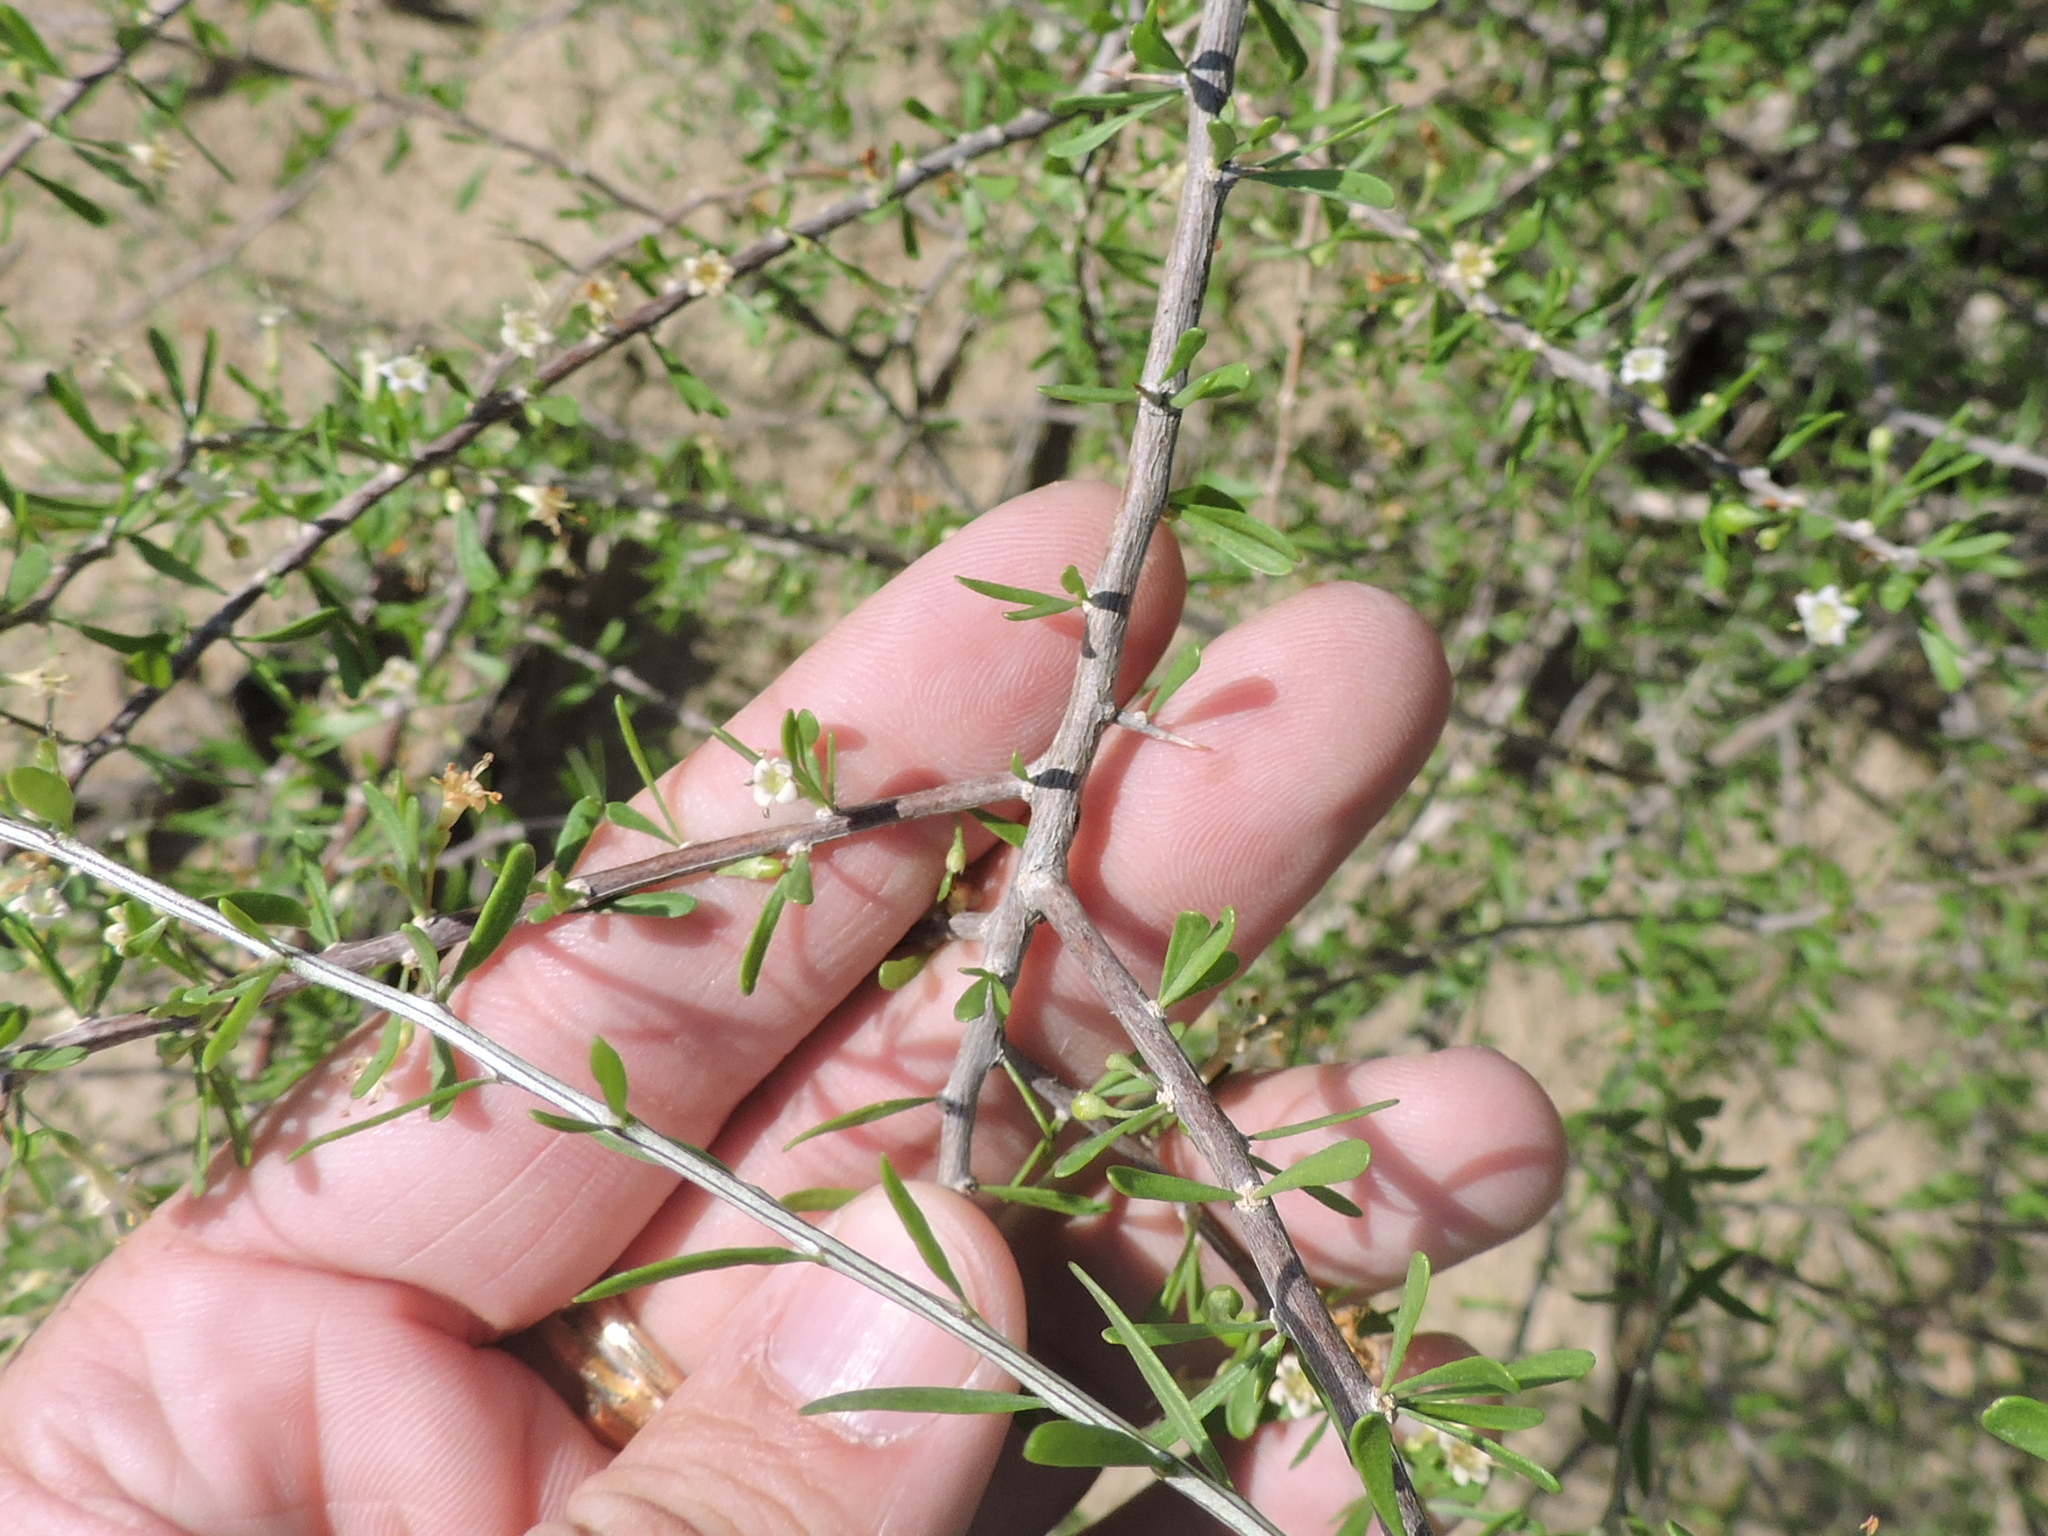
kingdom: Plantae
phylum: Tracheophyta
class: Magnoliopsida
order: Solanales
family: Solanaceae
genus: Lycium
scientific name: Lycium berlandieri
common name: Berlandier wolfberry
